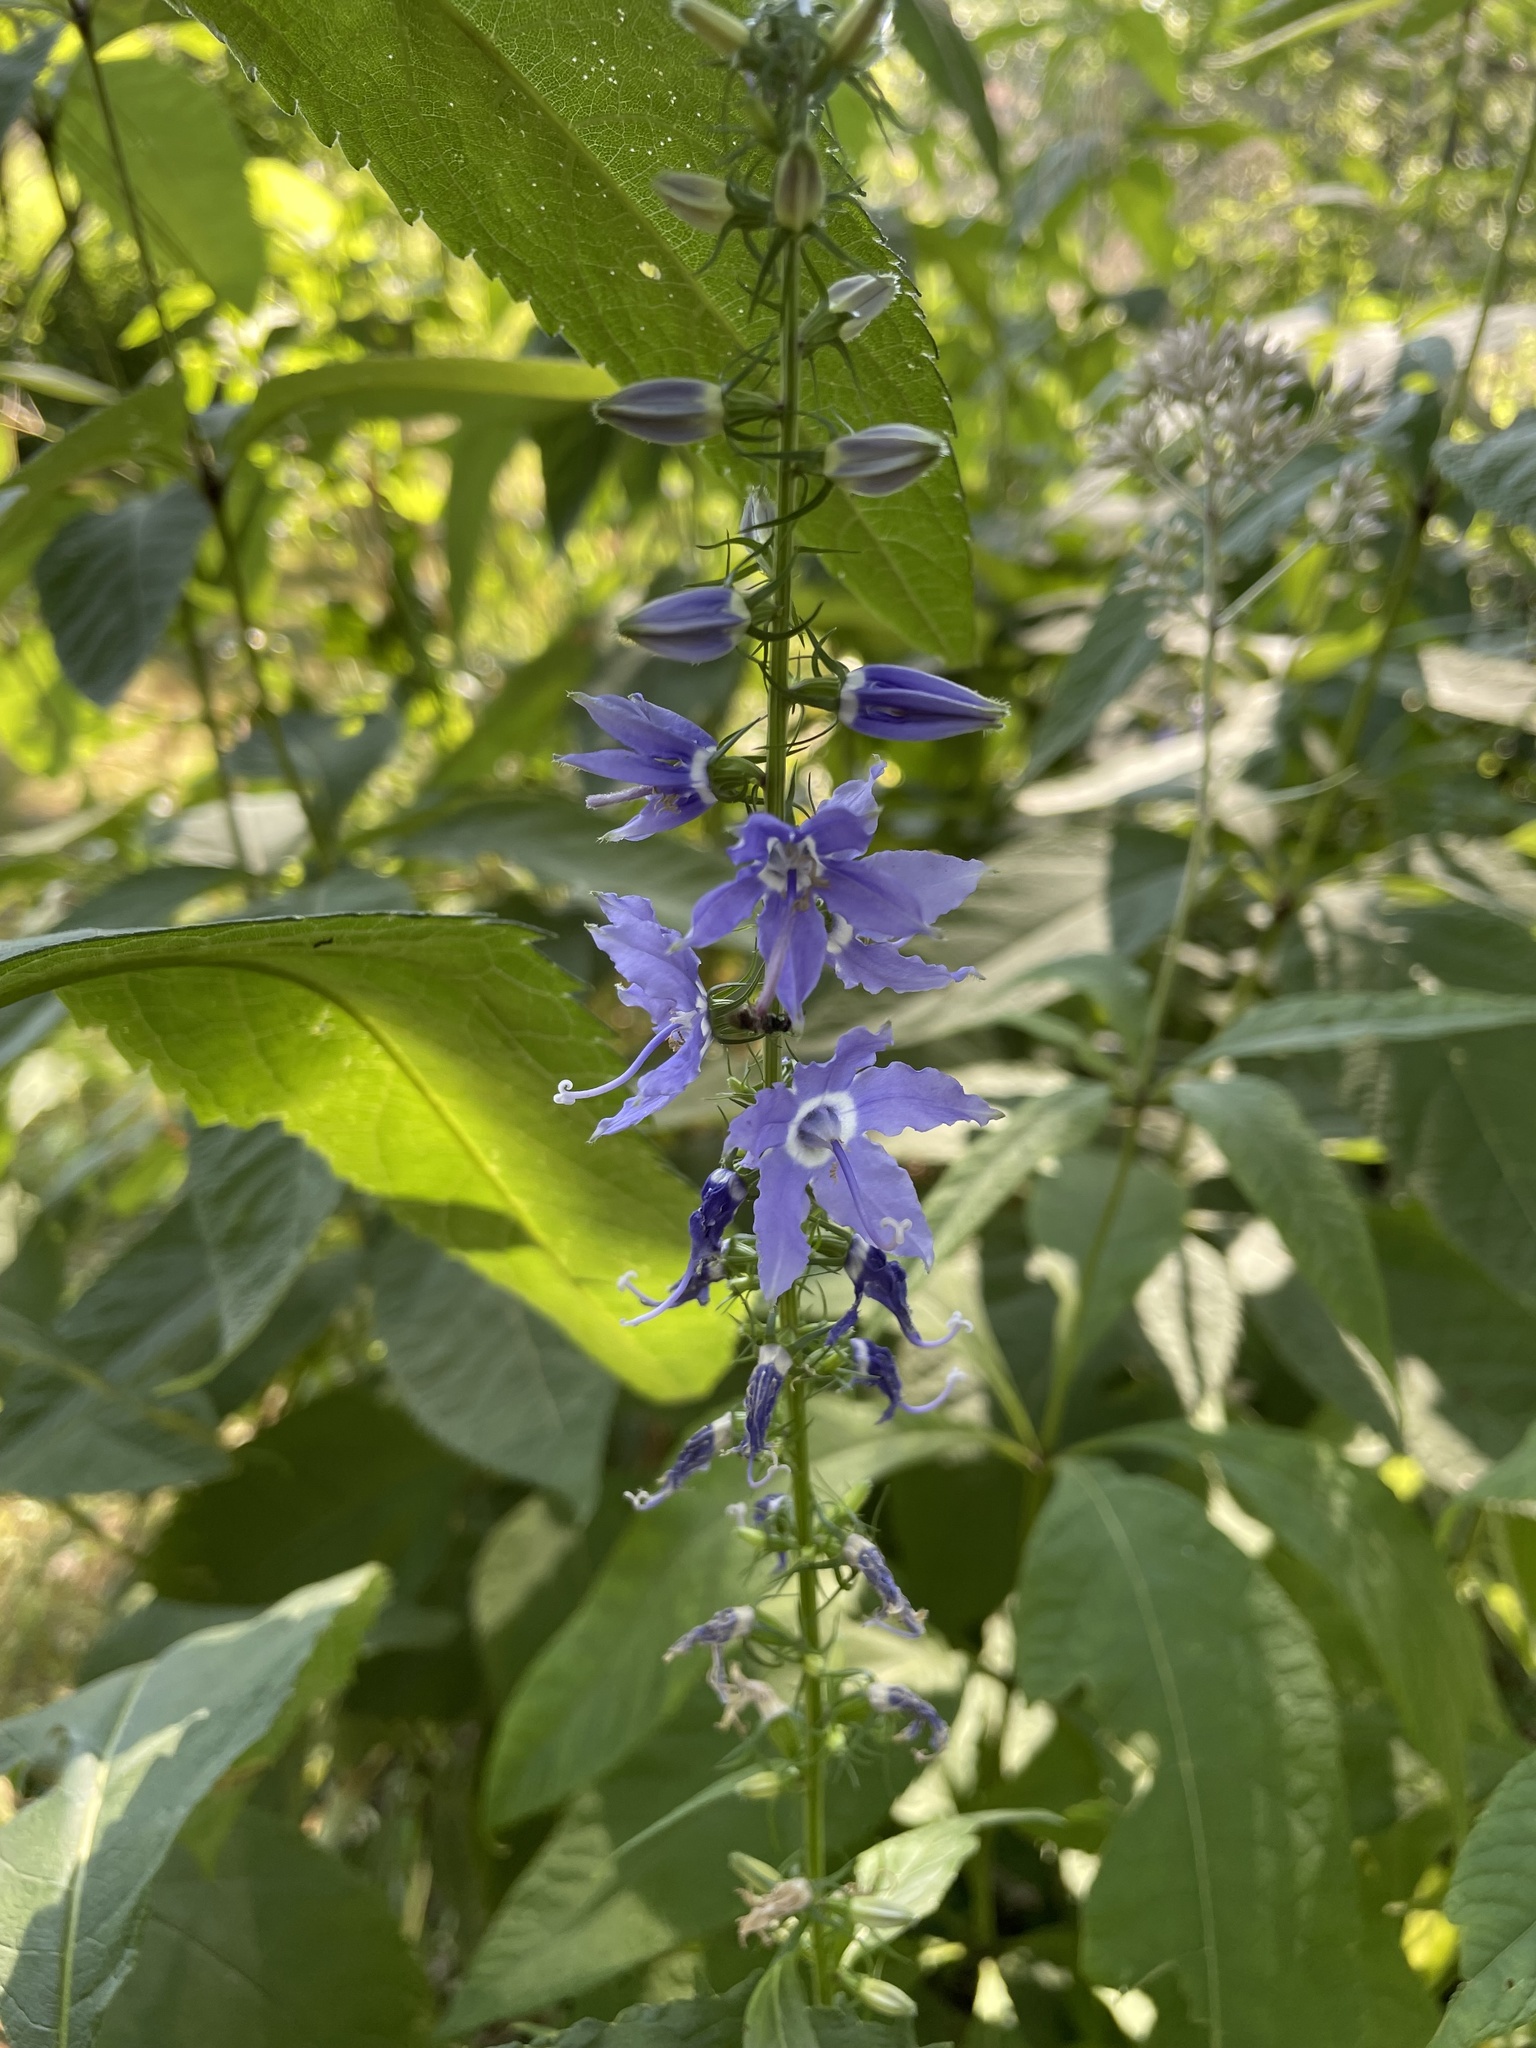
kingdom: Plantae
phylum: Tracheophyta
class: Magnoliopsida
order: Asterales
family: Campanulaceae
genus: Campanulastrum
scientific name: Campanulastrum americanum
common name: American bellflower
